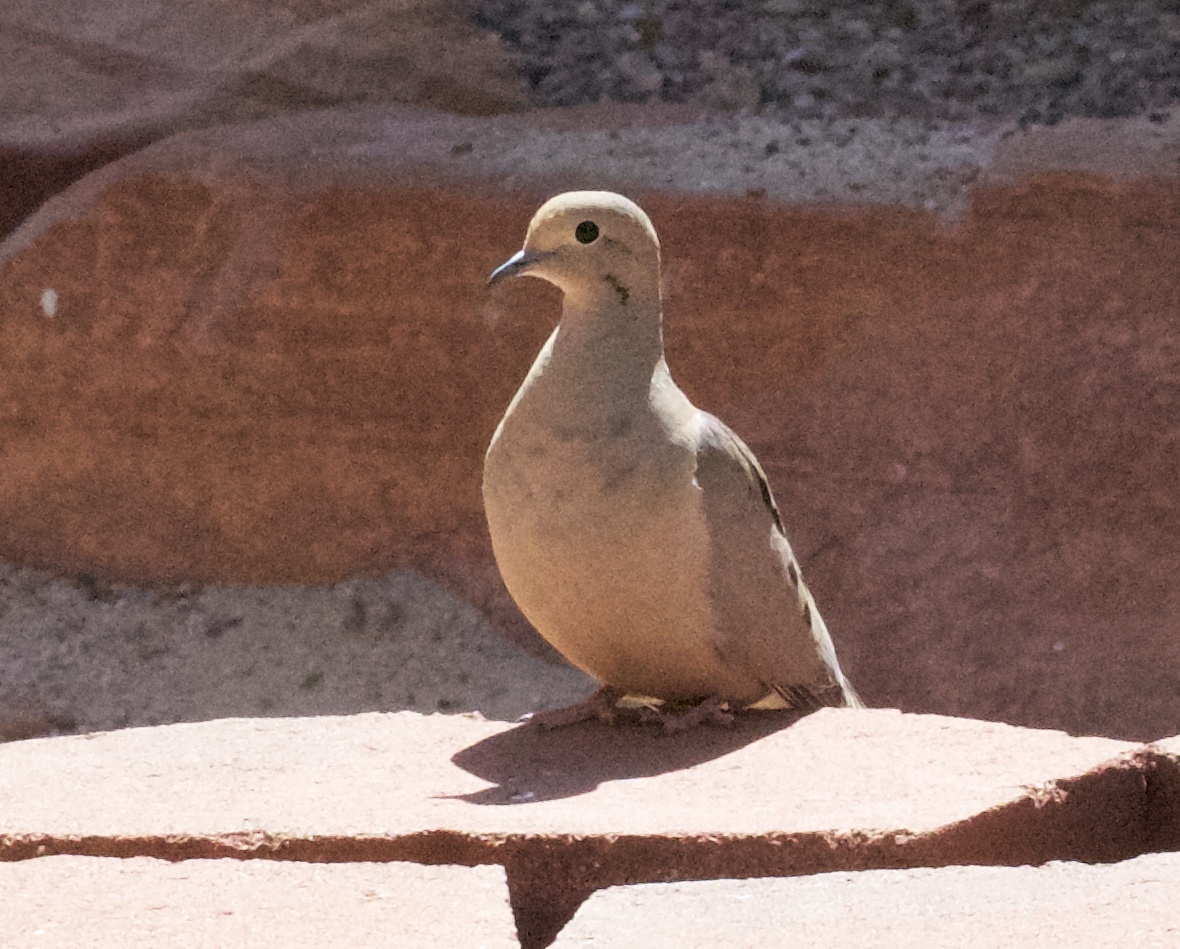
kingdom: Animalia
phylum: Chordata
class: Aves
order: Columbiformes
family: Columbidae
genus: Zenaida
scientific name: Zenaida macroura
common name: Mourning dove
